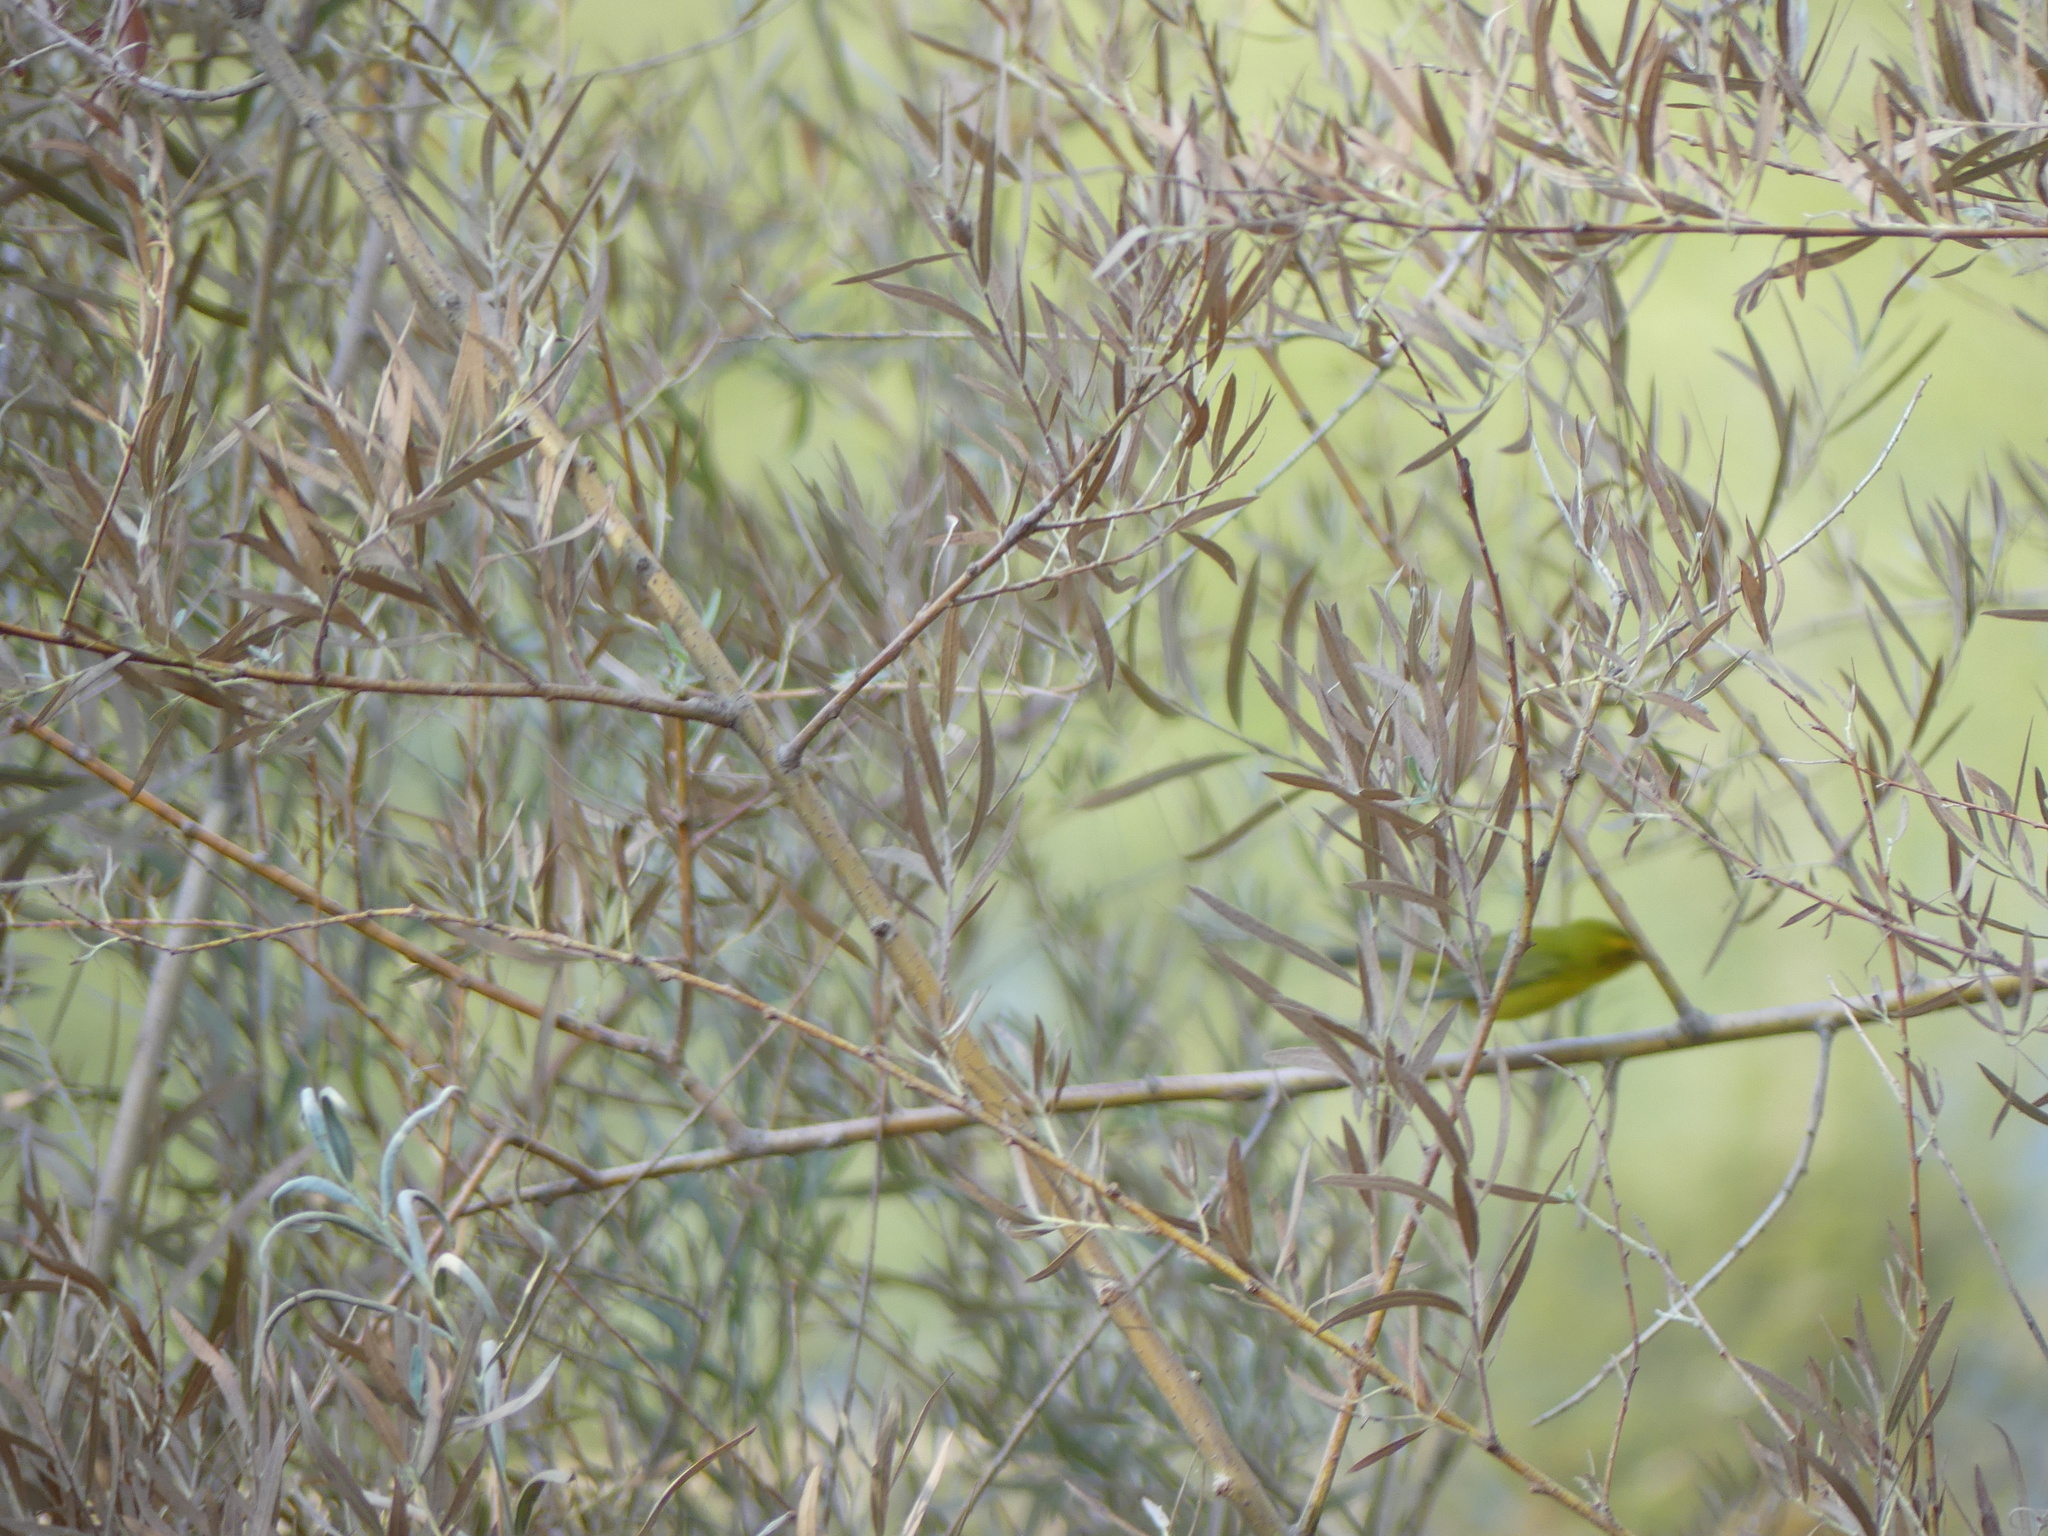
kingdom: Animalia
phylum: Chordata
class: Aves
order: Passeriformes
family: Parulidae
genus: Cardellina
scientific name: Cardellina pusilla
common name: Wilson's warbler
